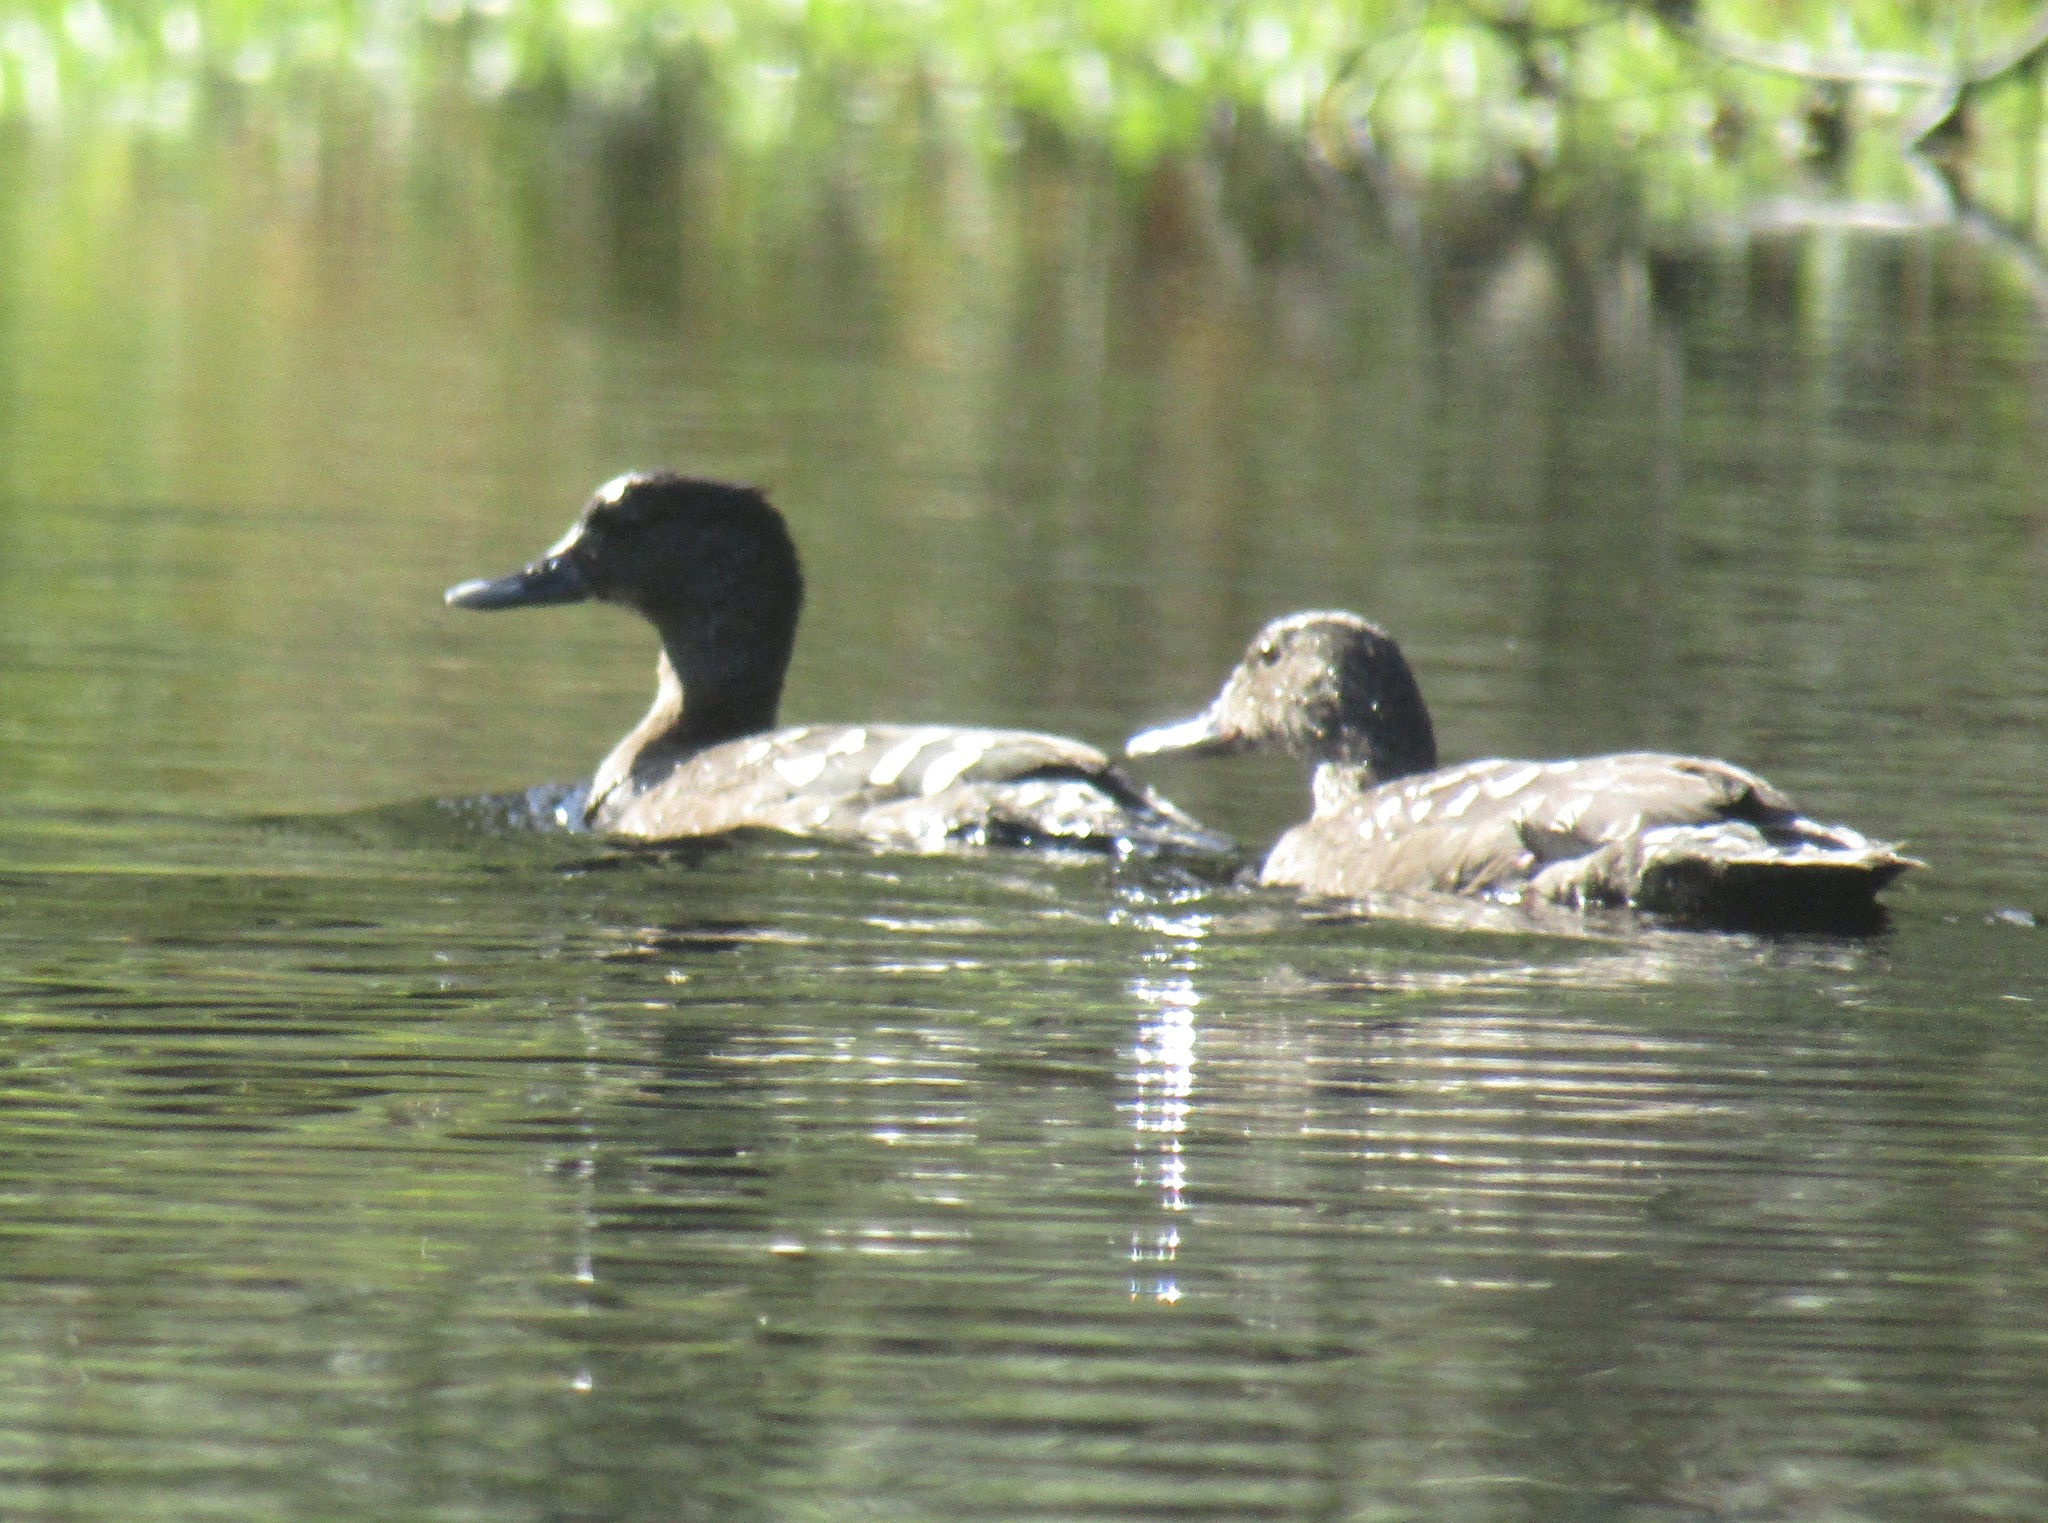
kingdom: Animalia
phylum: Chordata
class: Aves
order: Anseriformes
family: Anatidae
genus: Anas
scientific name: Anas sparsa
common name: African black duck
